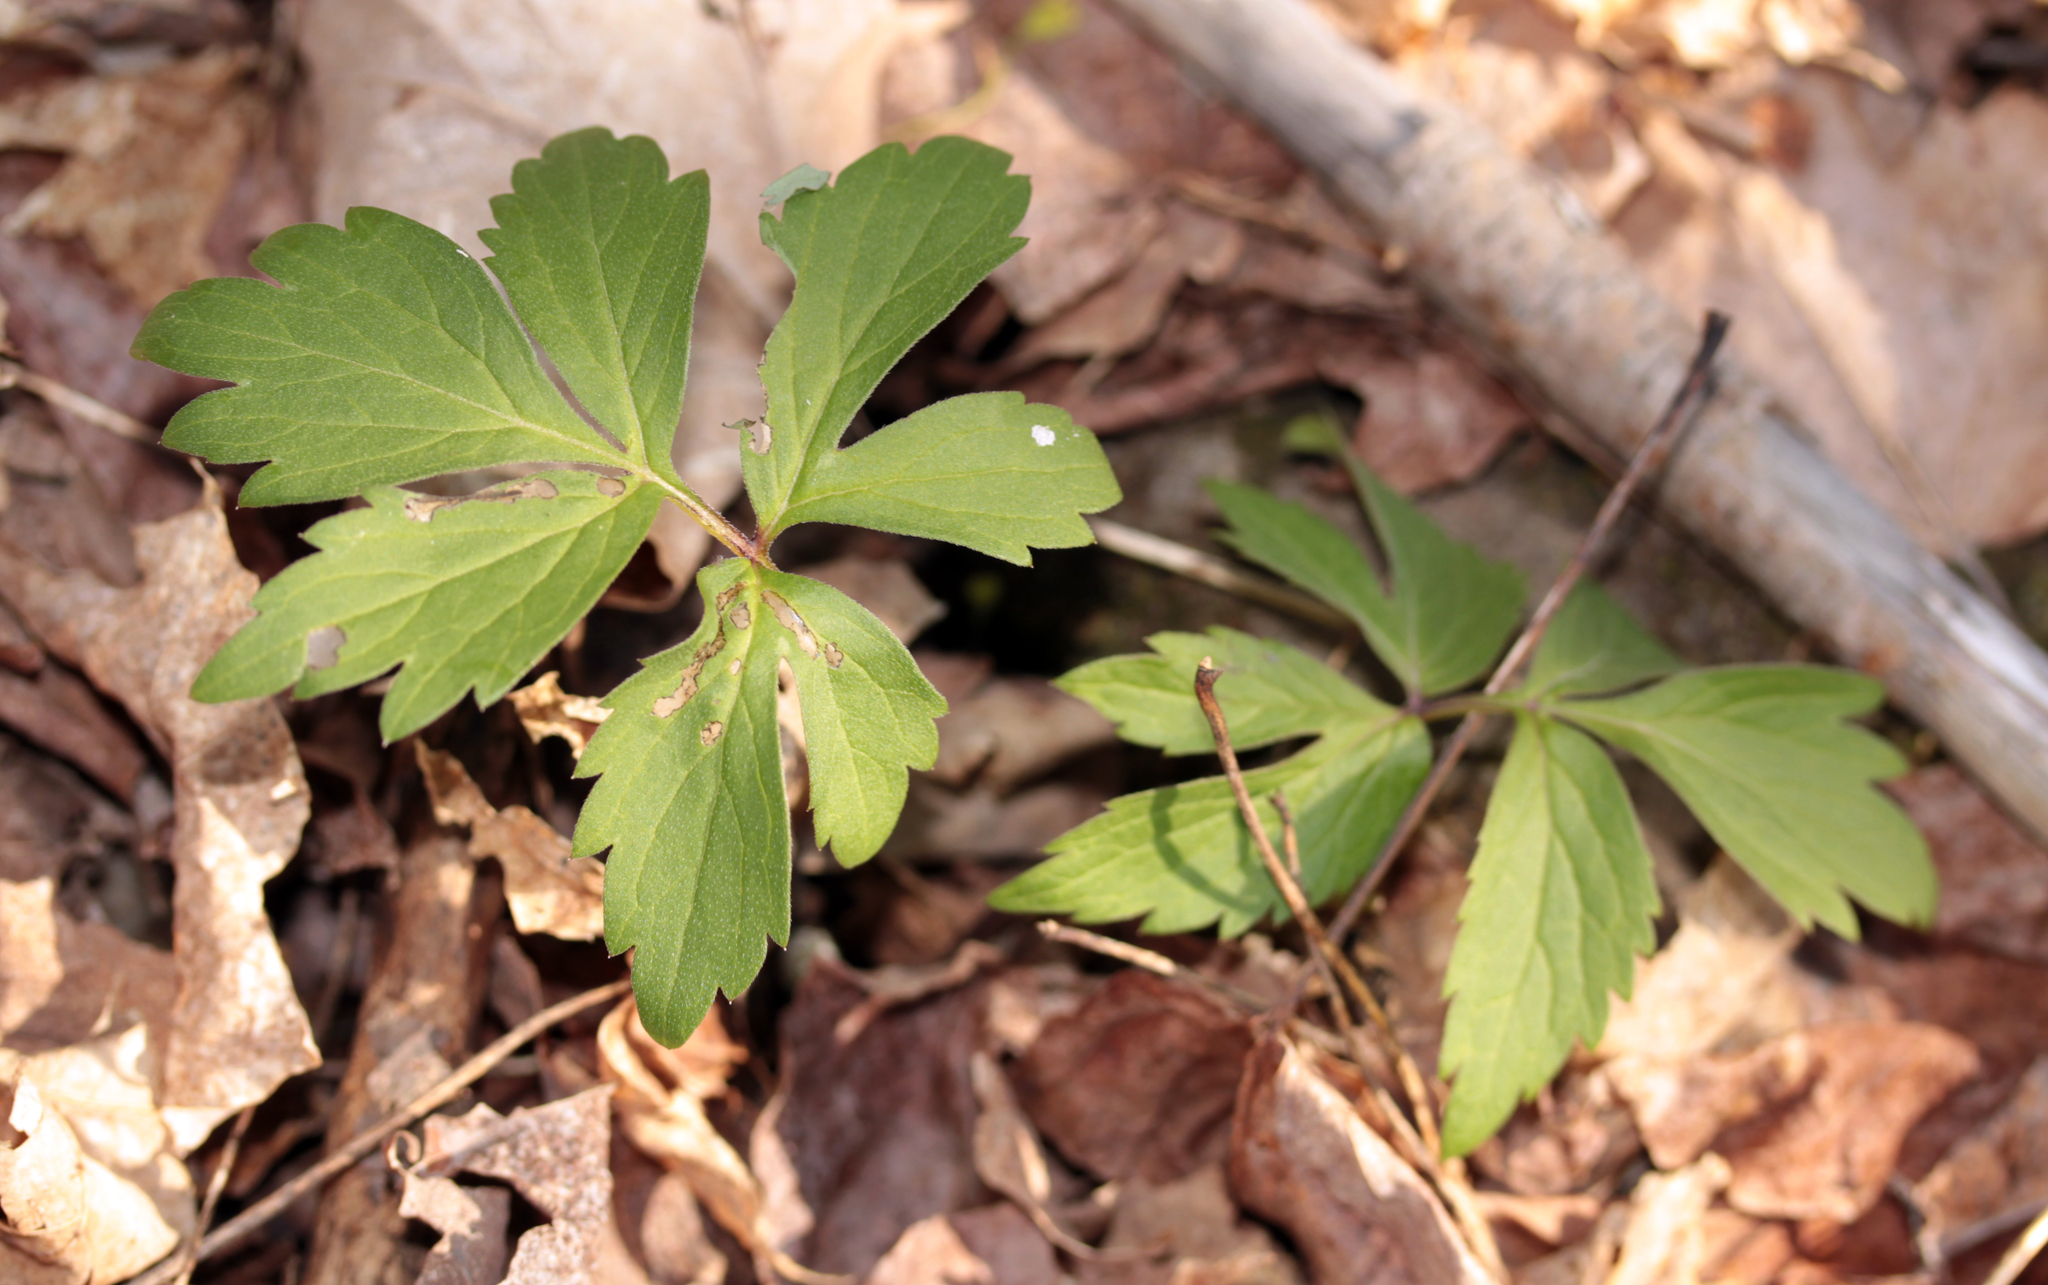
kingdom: Plantae
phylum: Tracheophyta
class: Magnoliopsida
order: Boraginales
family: Hydrophyllaceae
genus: Hydrophyllum
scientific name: Hydrophyllum virginianum
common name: Virginia waterleaf
